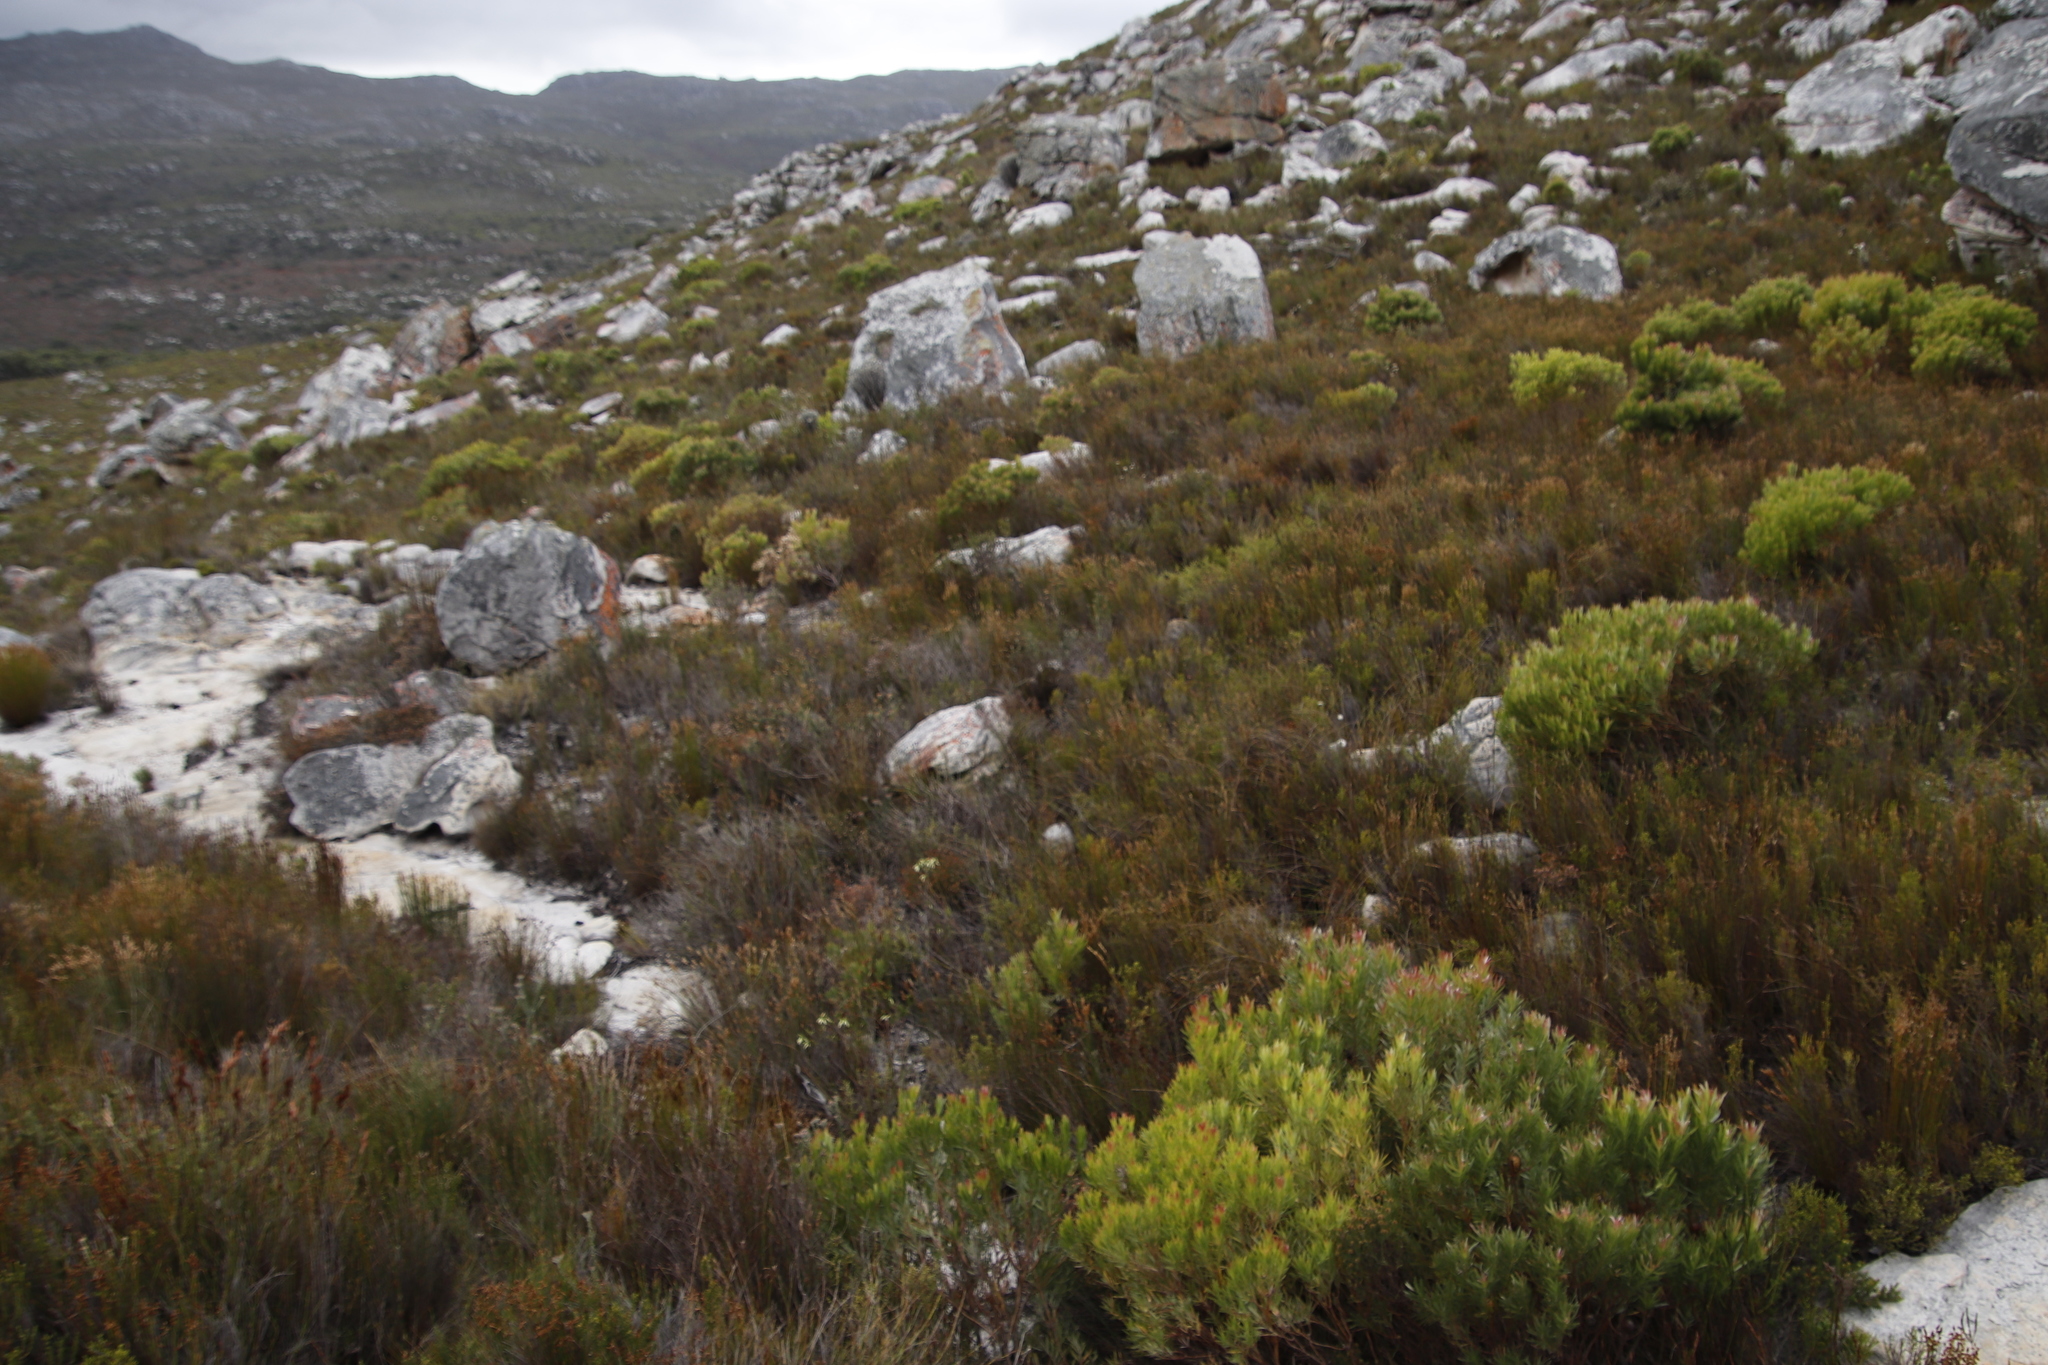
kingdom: Plantae
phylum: Tracheophyta
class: Magnoliopsida
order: Proteales
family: Proteaceae
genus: Leucadendron
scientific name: Leucadendron xanthoconus
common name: Sickle-leaf conebush
